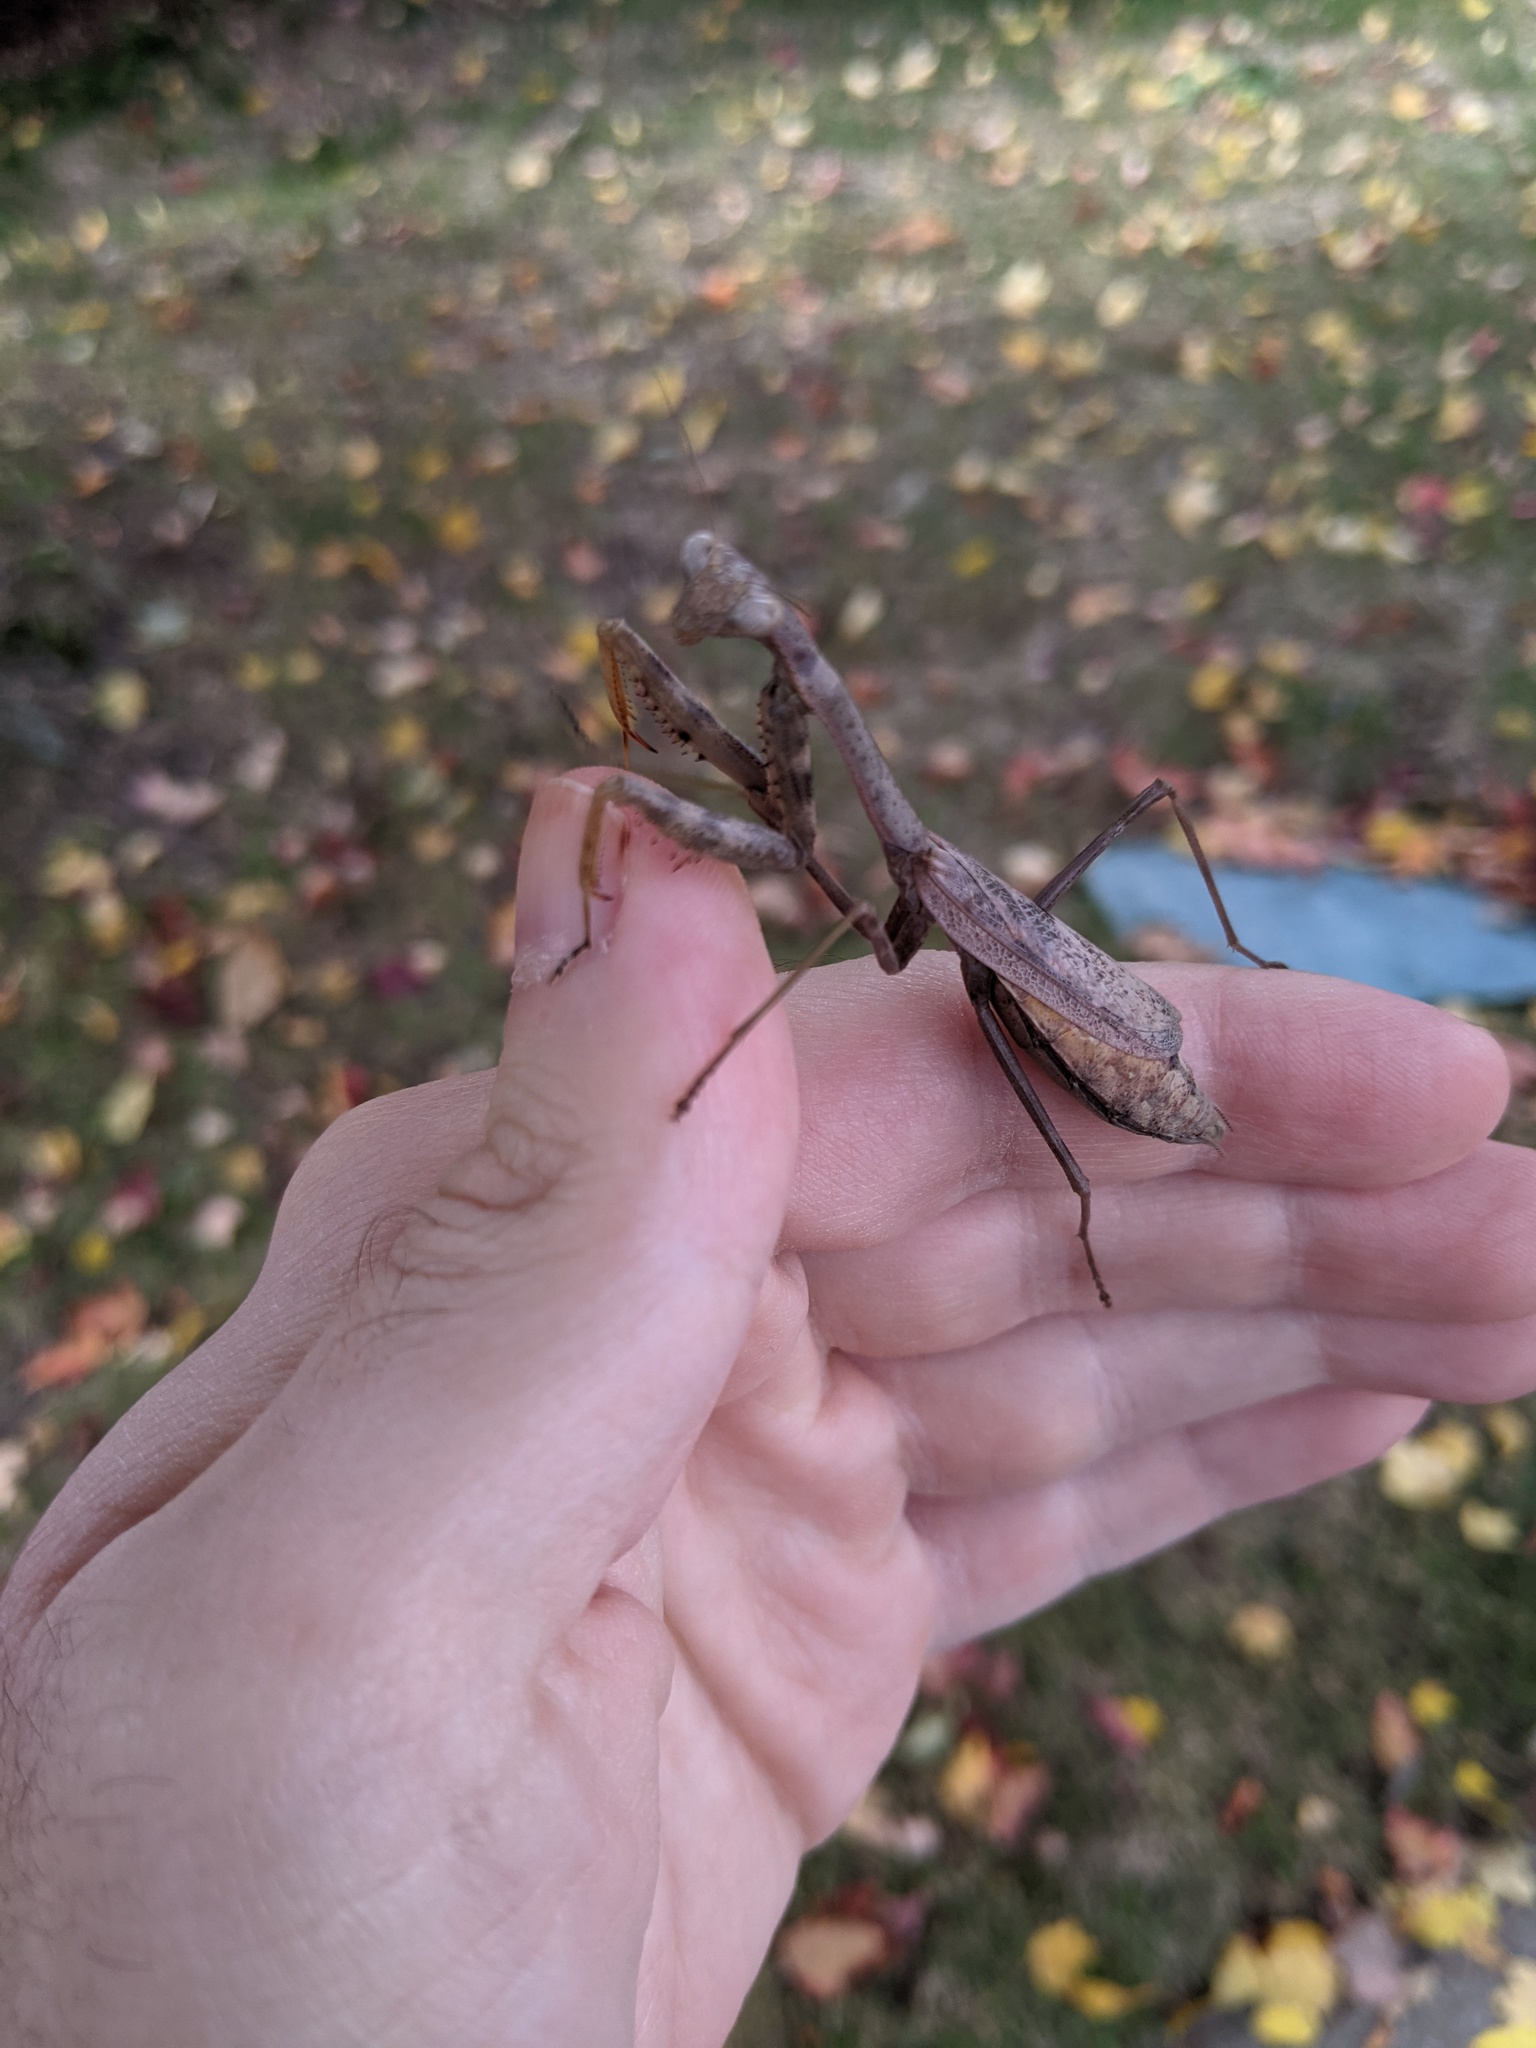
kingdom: Animalia
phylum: Arthropoda
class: Insecta
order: Mantodea
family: Mantidae
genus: Stagmomantis
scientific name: Stagmomantis carolina
